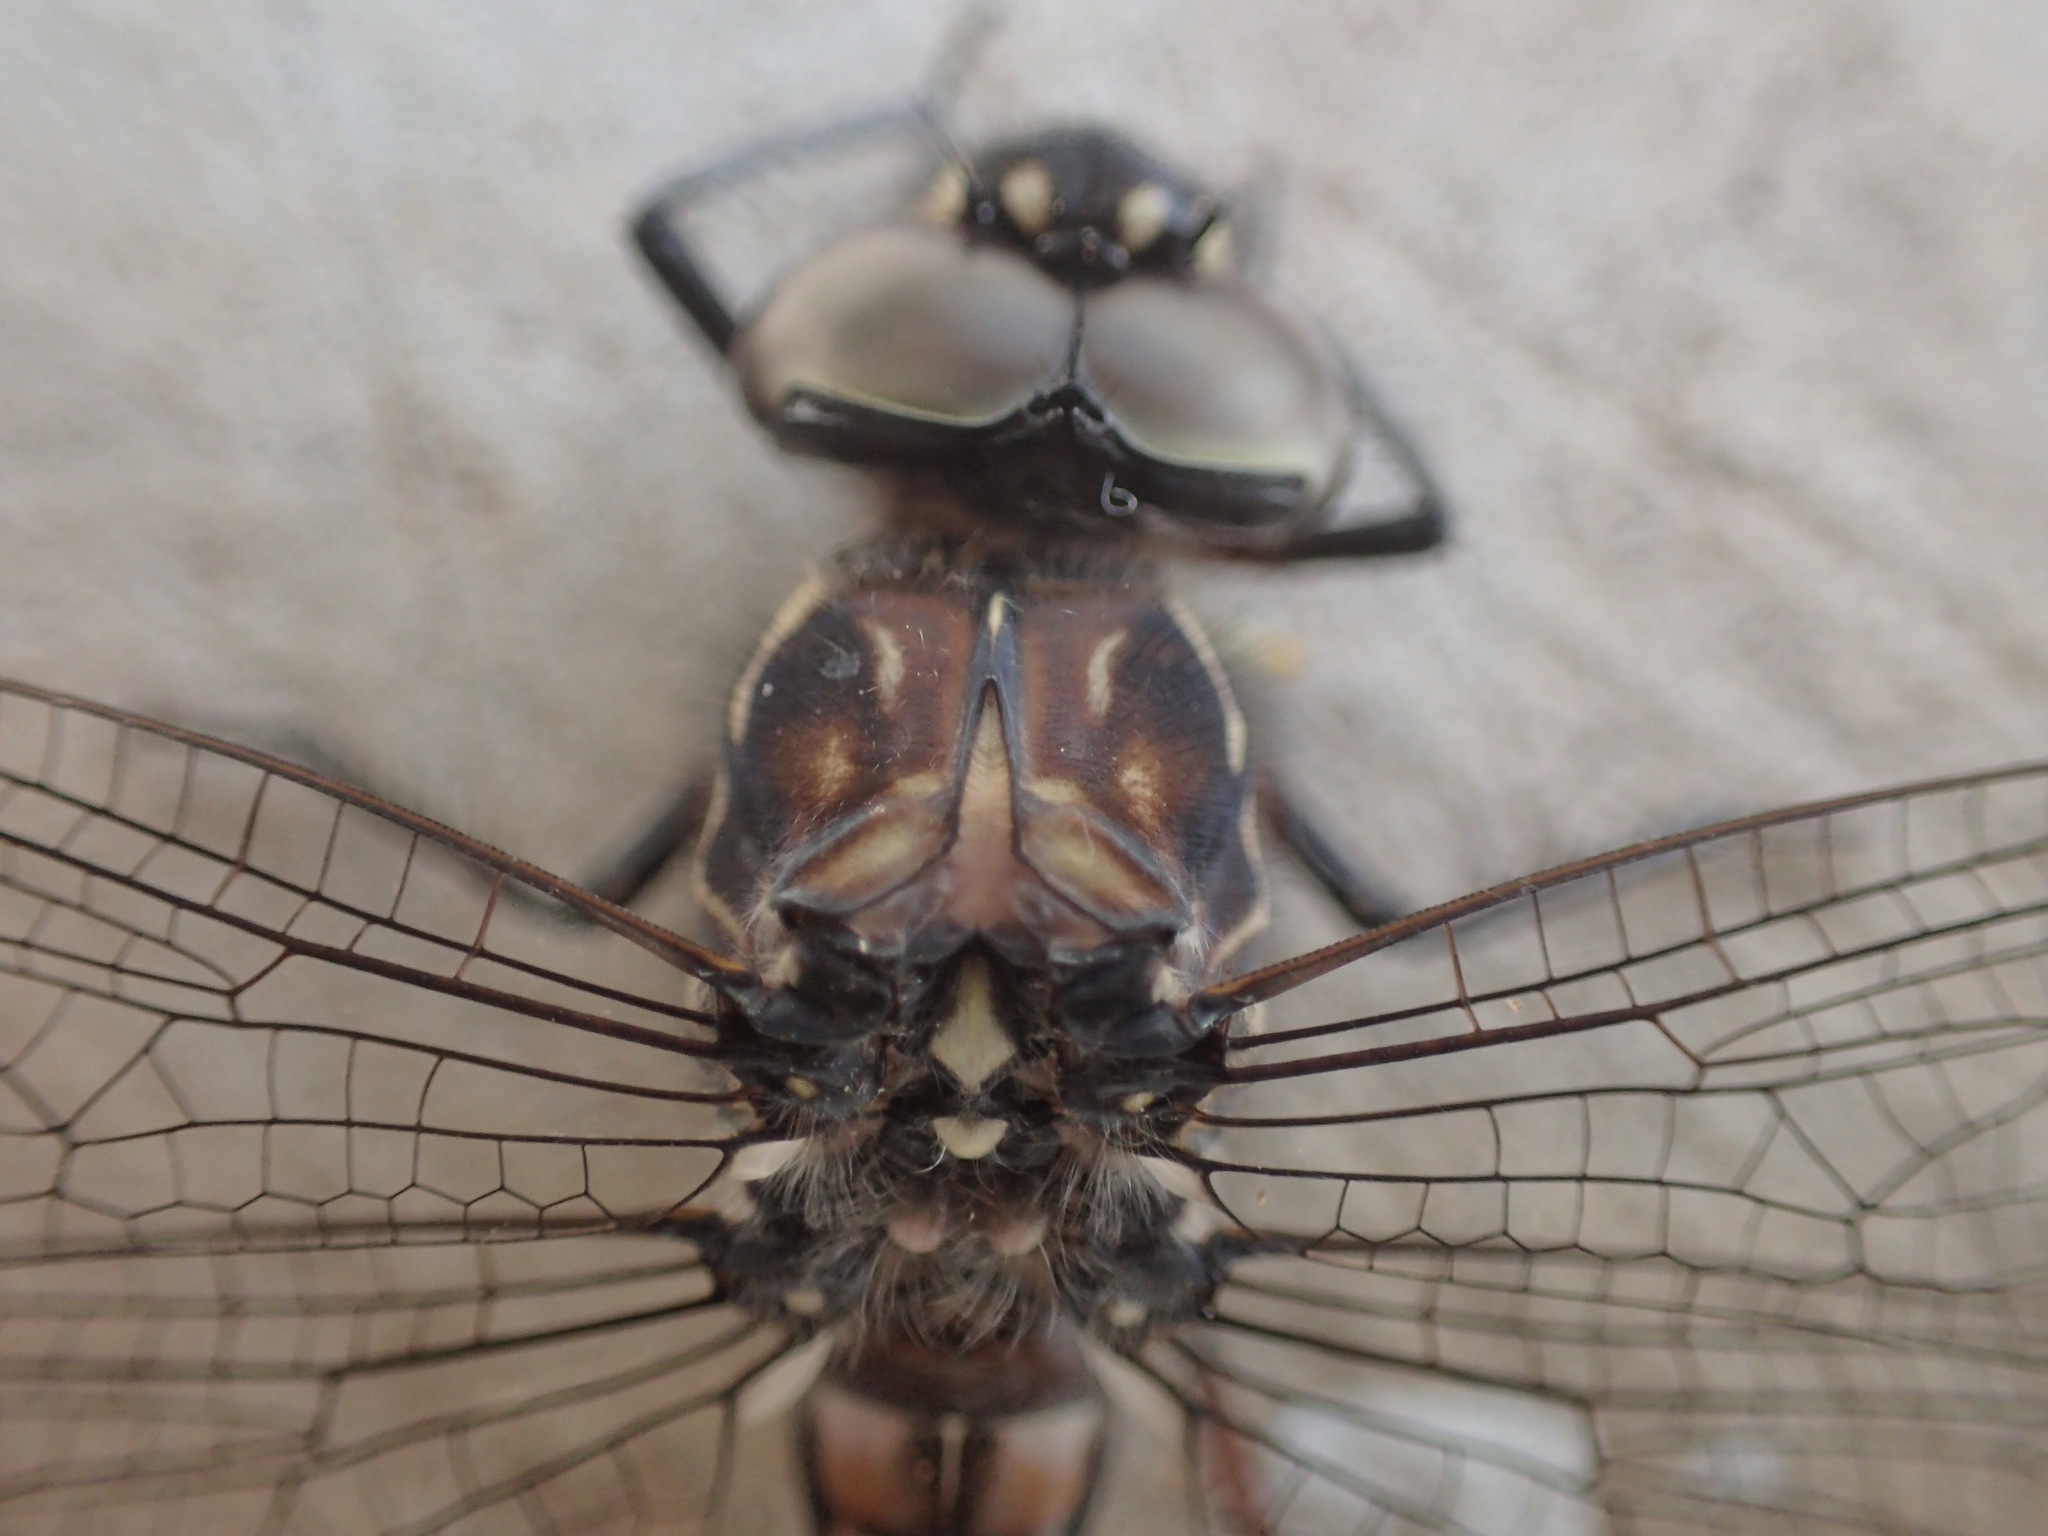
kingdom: Animalia
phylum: Arthropoda
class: Insecta
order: Odonata
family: Aeshnidae
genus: Austroaeschna
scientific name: Austroaeschna parvistigma
